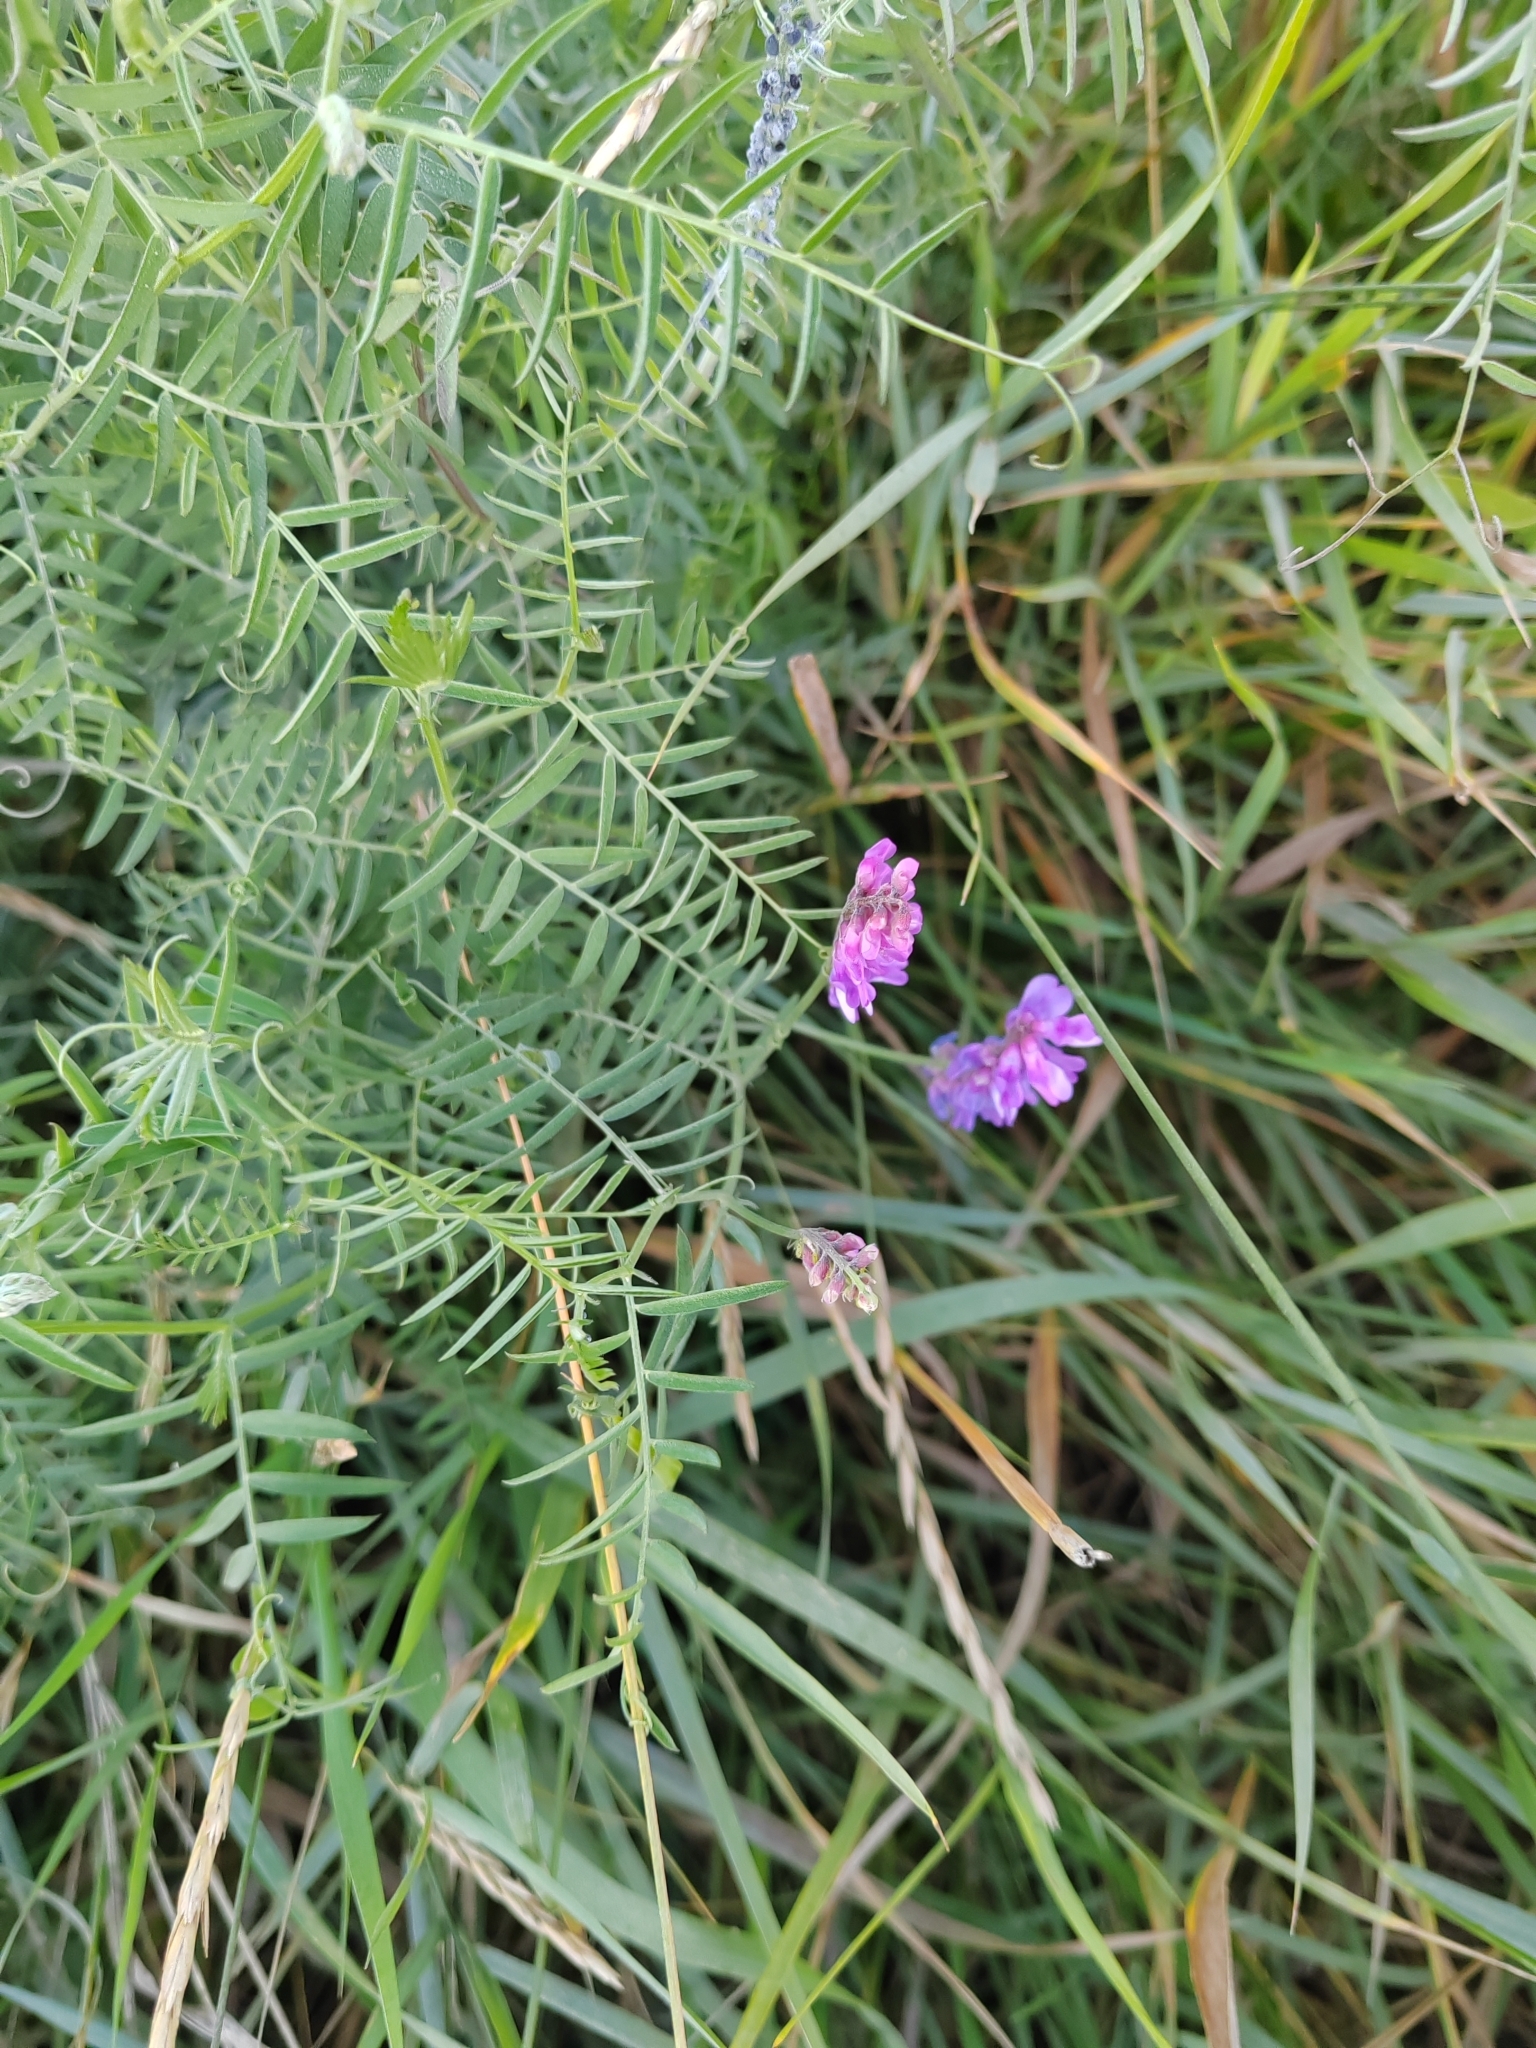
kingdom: Plantae
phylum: Tracheophyta
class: Magnoliopsida
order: Fabales
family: Fabaceae
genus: Vicia
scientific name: Vicia cracca
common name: Bird vetch
